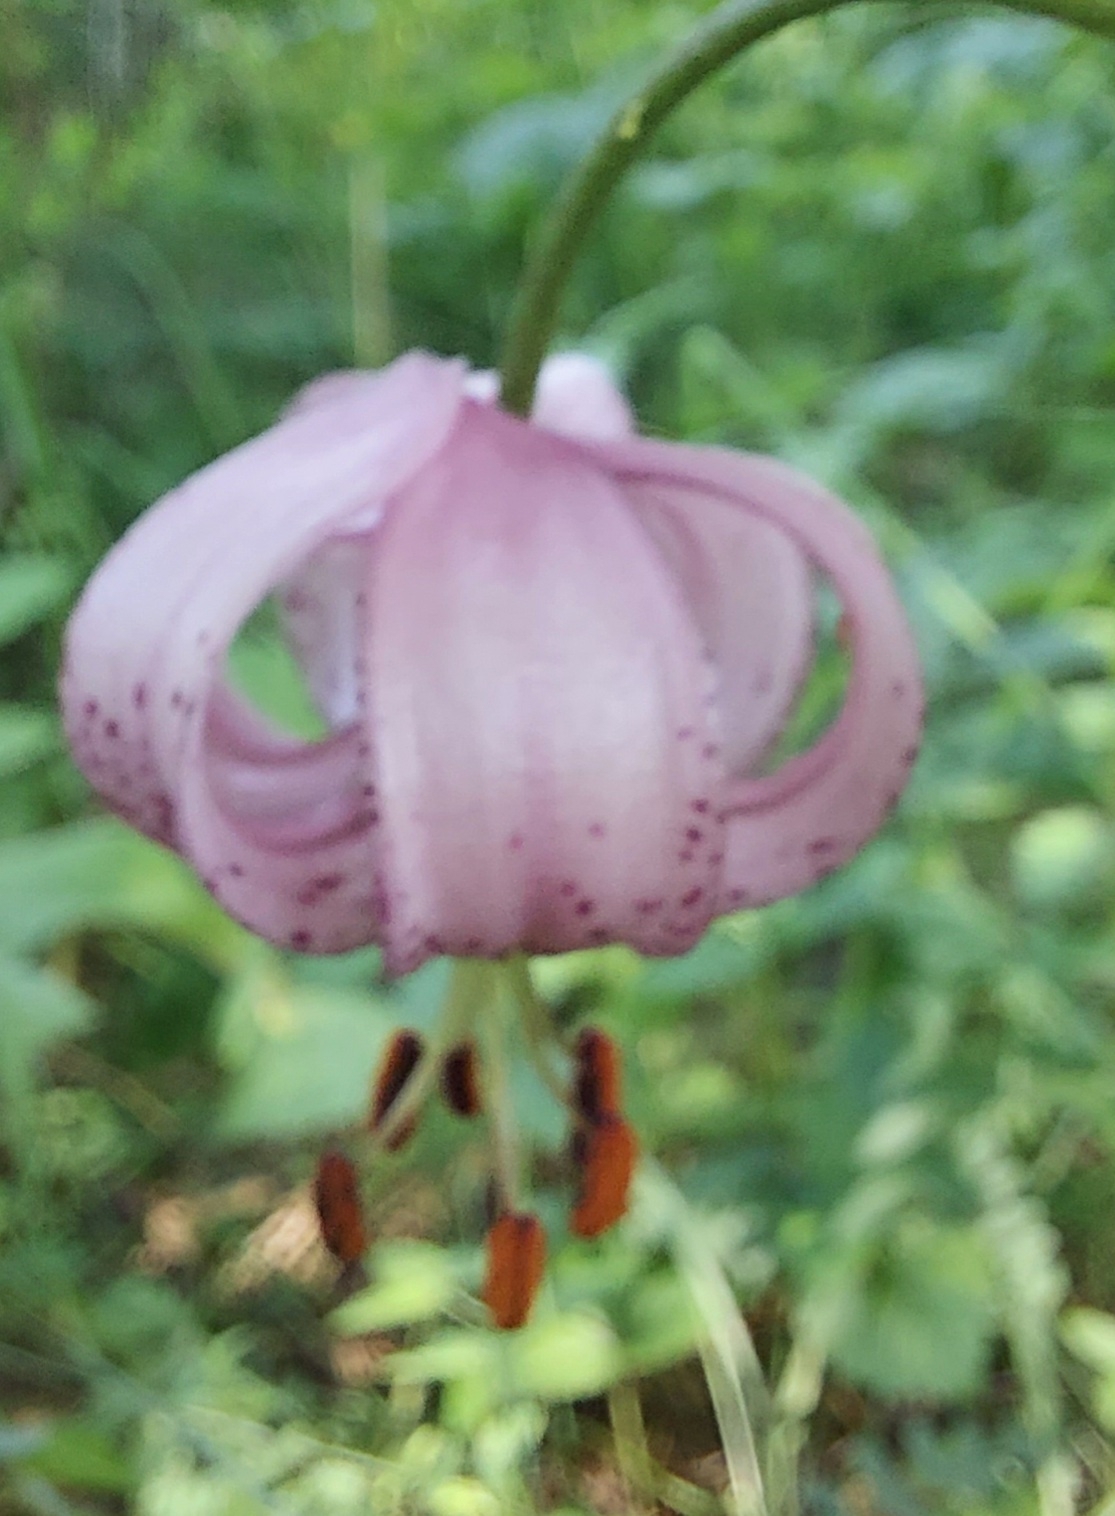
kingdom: Plantae
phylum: Tracheophyta
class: Liliopsida
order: Liliales
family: Liliaceae
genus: Lilium
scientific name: Lilium martagon
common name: Martagon lily
